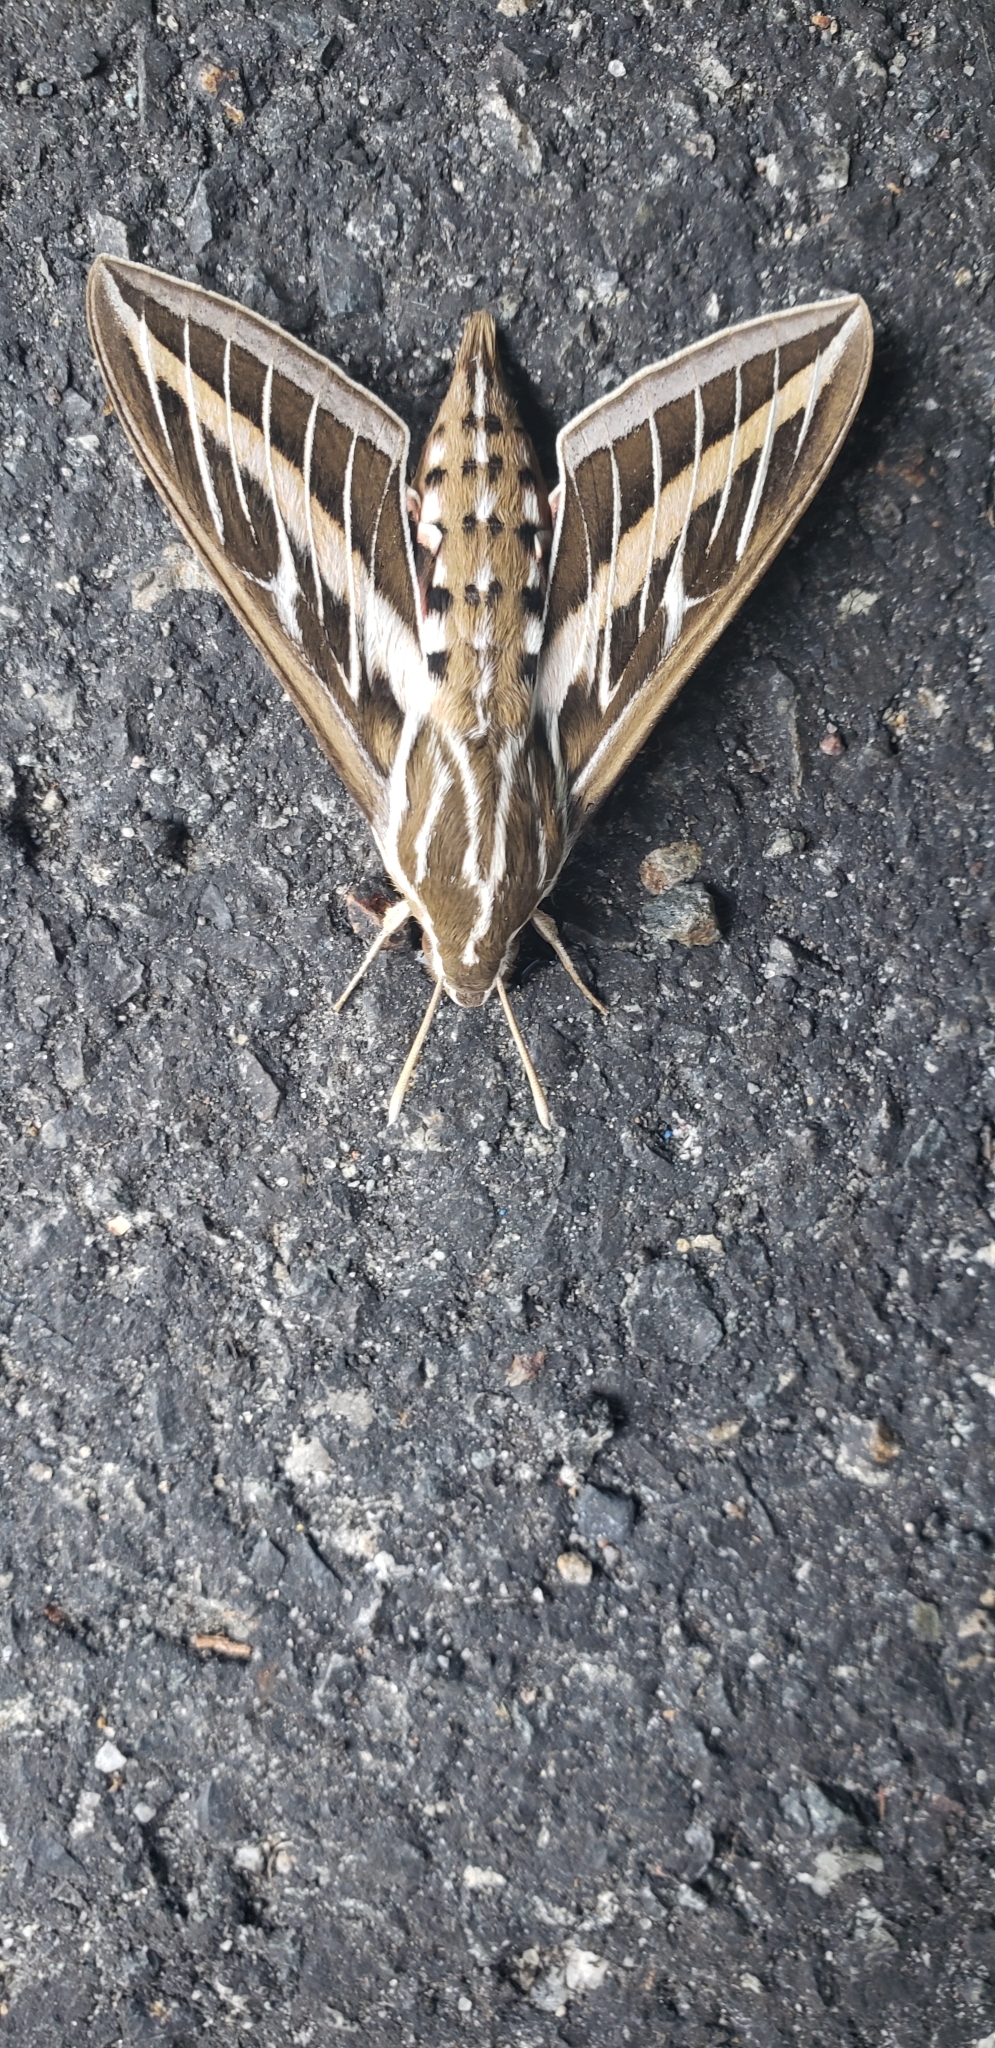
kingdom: Animalia
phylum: Arthropoda
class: Insecta
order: Lepidoptera
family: Sphingidae
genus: Hyles
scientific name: Hyles lineata
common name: White-lined sphinx
